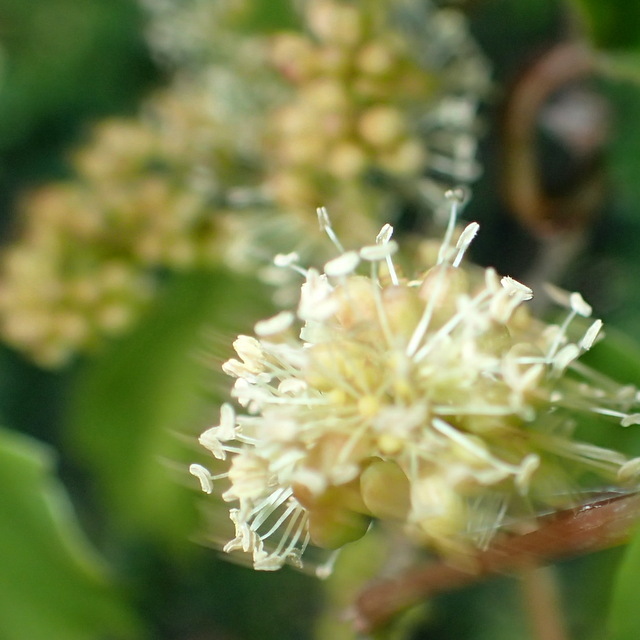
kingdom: Plantae
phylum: Tracheophyta
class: Magnoliopsida
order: Vitales
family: Vitaceae
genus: Vitis
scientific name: Vitis rotundifolia
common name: Muscadine grape
